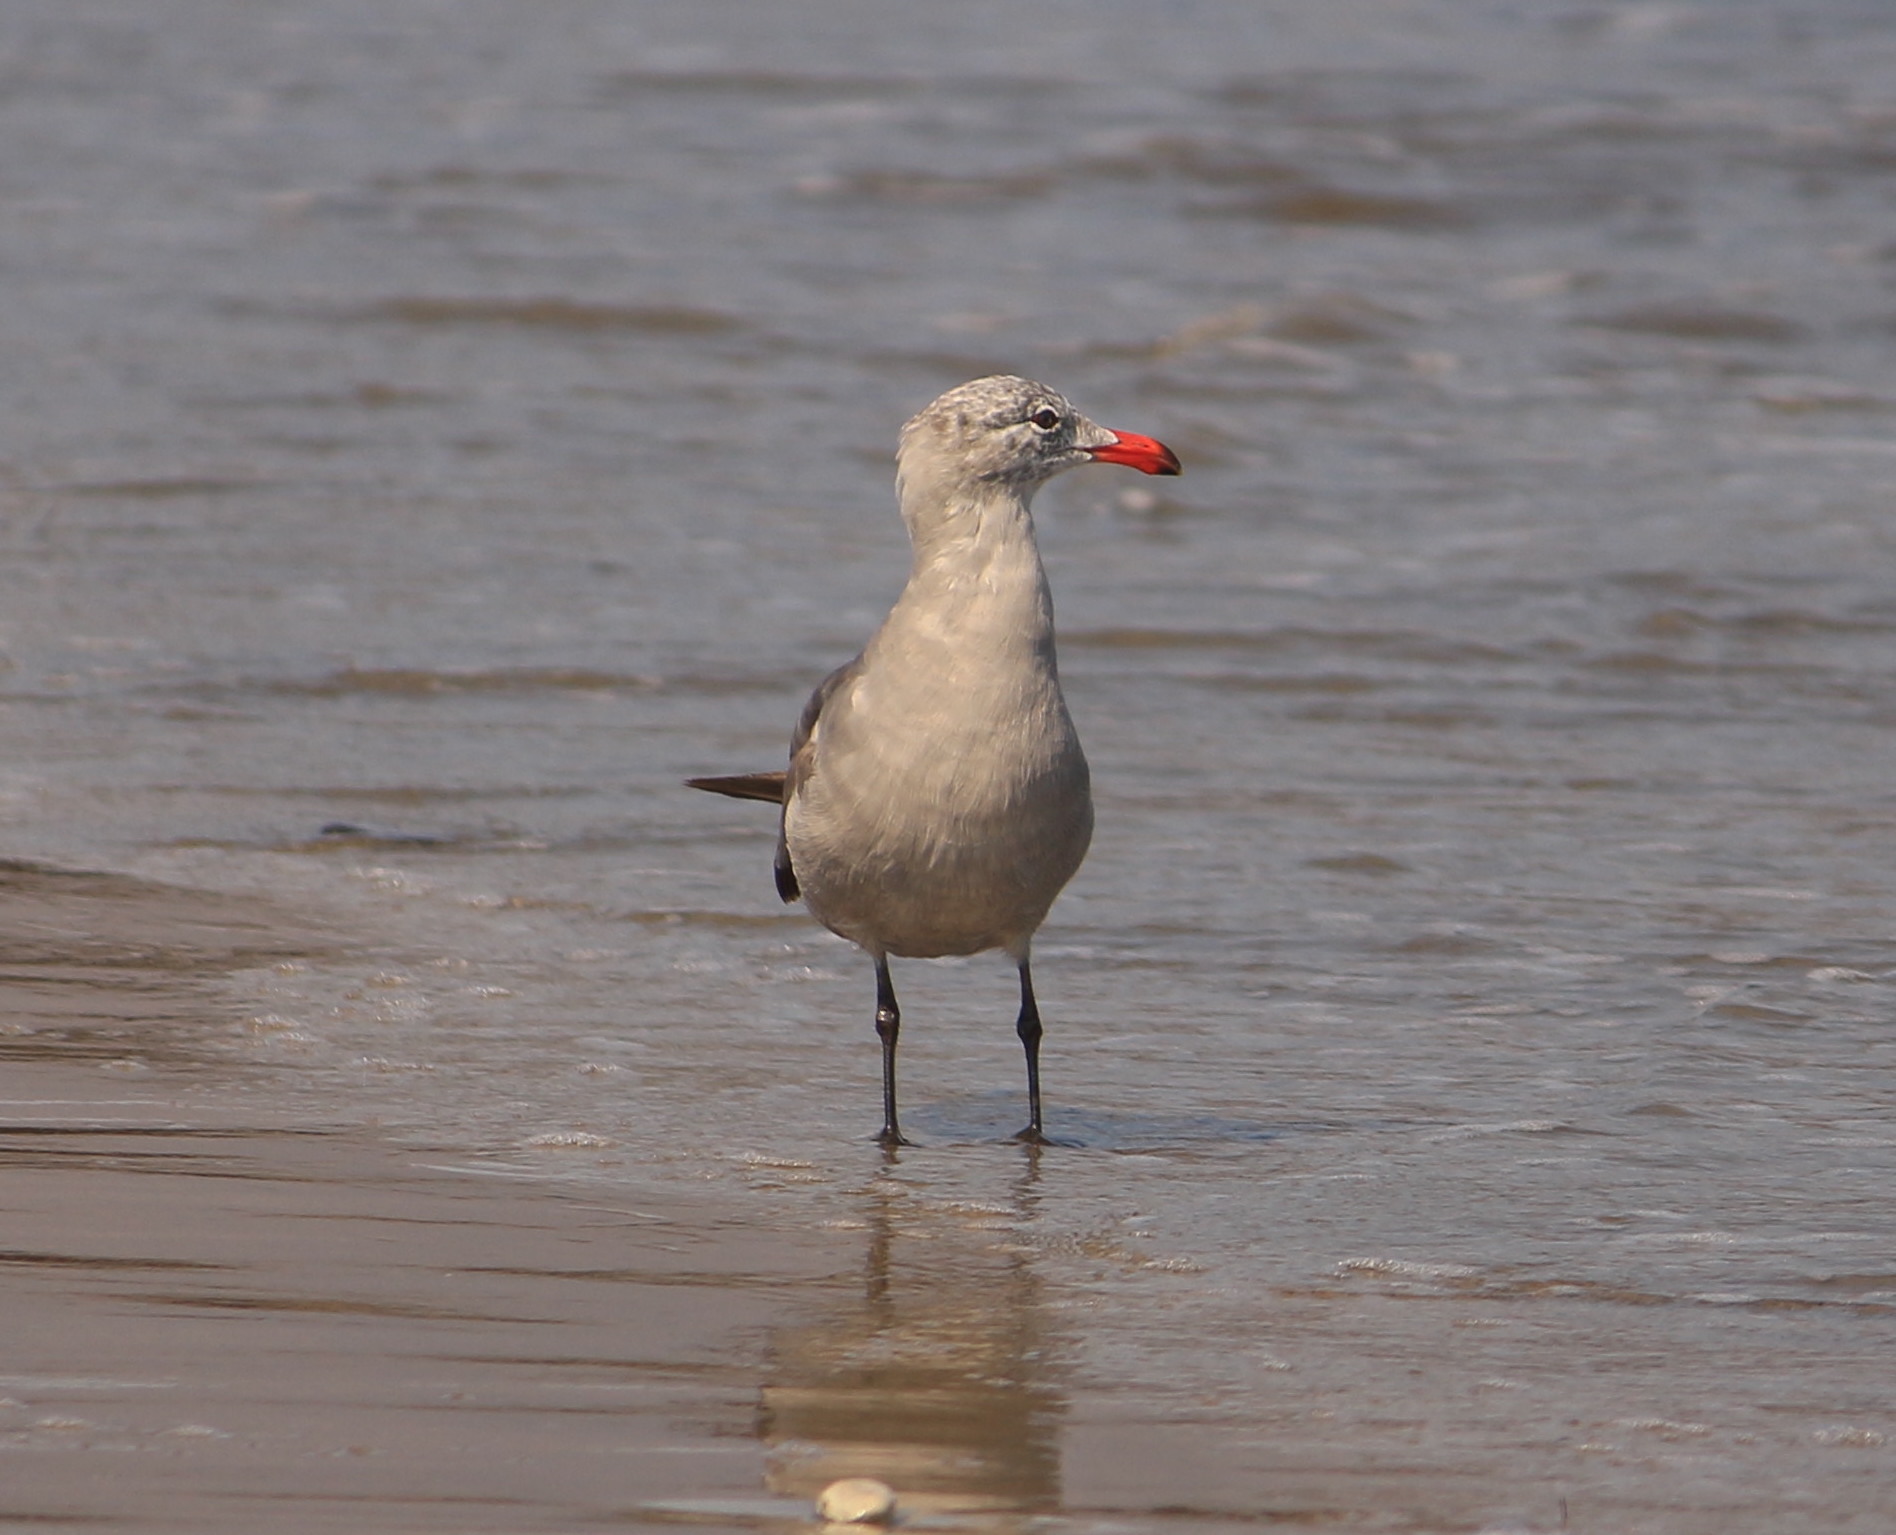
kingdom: Animalia
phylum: Chordata
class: Aves
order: Charadriiformes
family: Laridae
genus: Larus
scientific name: Larus heermanni
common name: Heermann's gull
